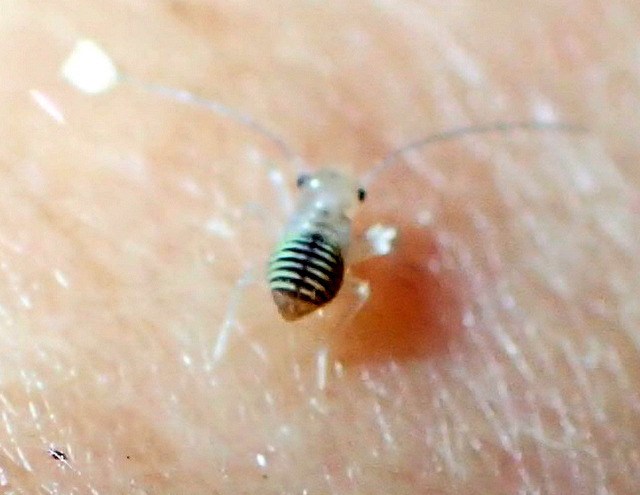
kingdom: Animalia
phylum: Arthropoda
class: Insecta
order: Psocodea
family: Psocidae
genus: Cerastipsocus
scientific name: Cerastipsocus venosus
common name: Tree cattle
